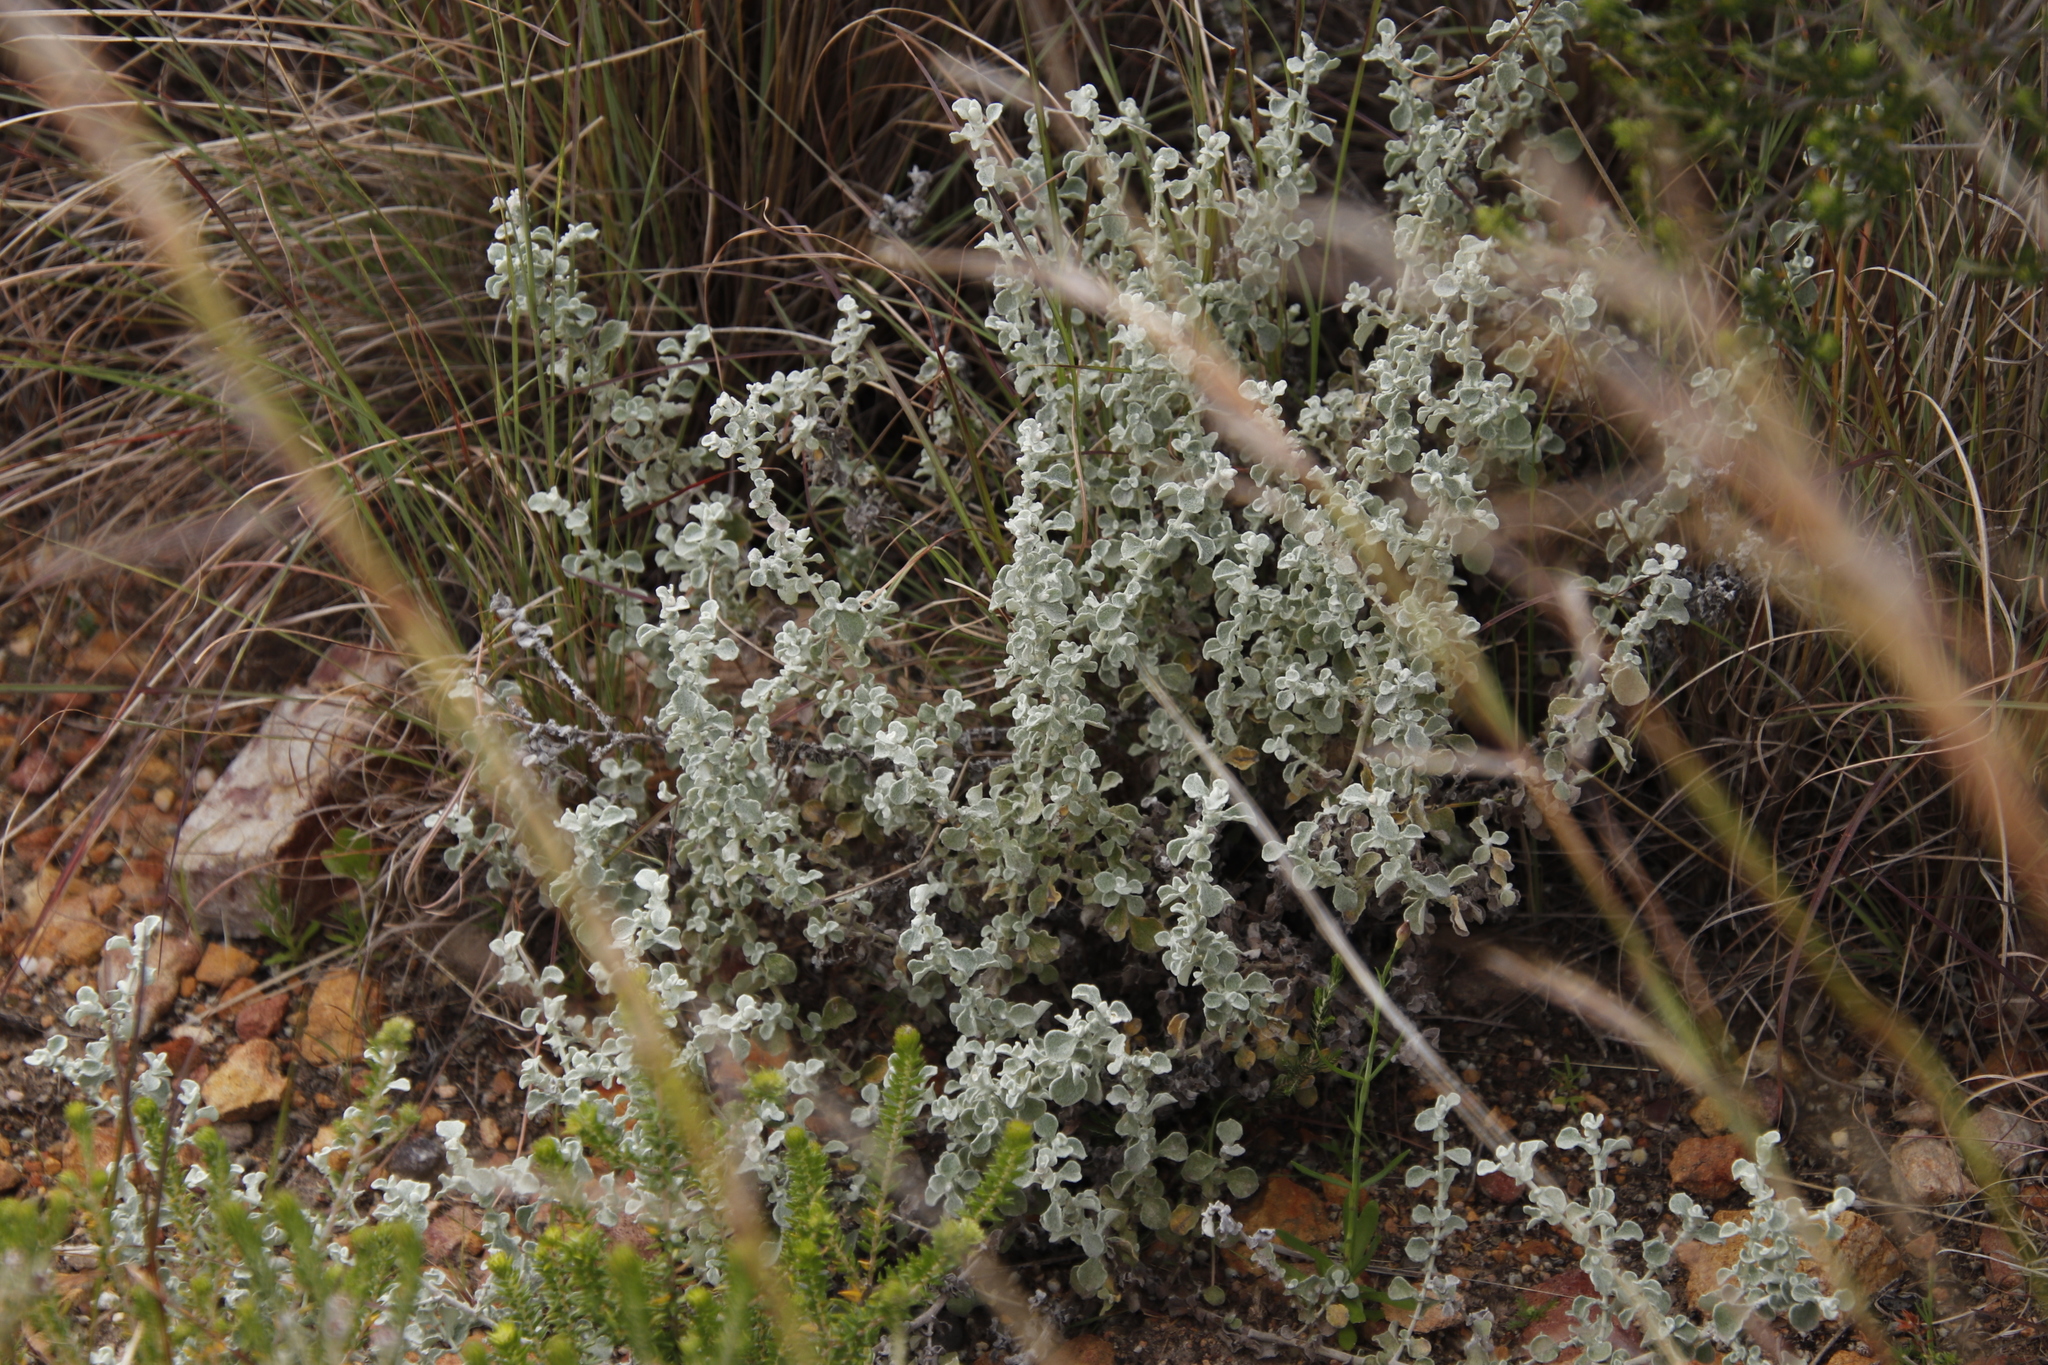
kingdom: Plantae
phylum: Tracheophyta
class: Magnoliopsida
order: Asterales
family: Asteraceae
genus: Helichrysum
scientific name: Helichrysum patulum
